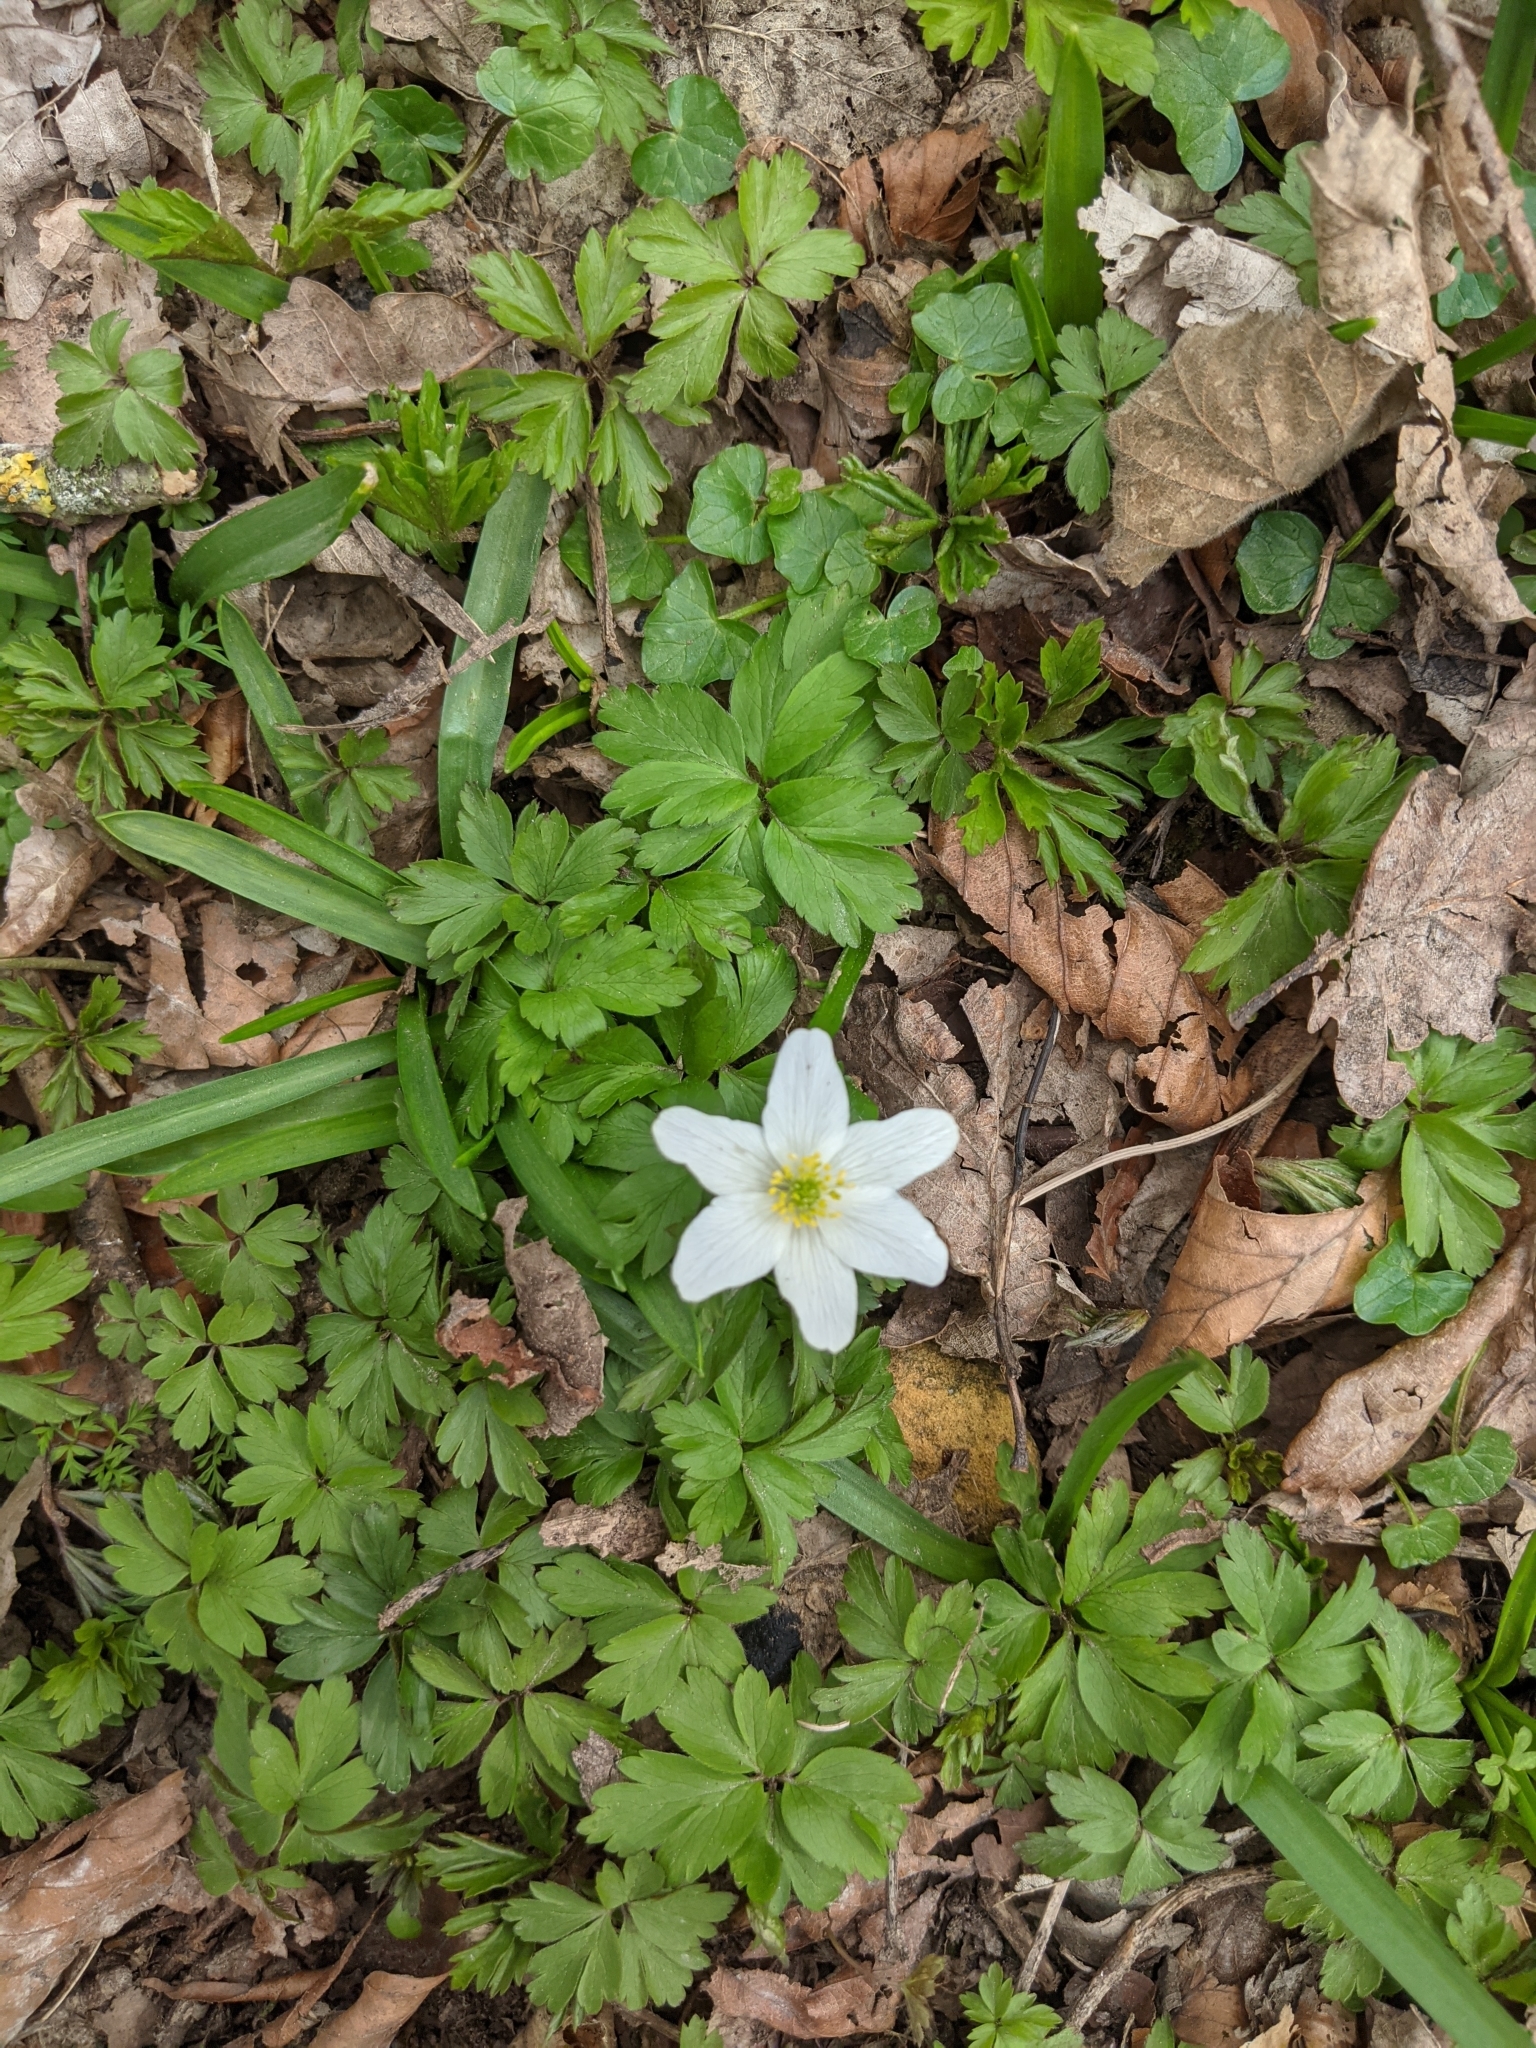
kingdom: Plantae
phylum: Tracheophyta
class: Magnoliopsida
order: Ranunculales
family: Ranunculaceae
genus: Anemone
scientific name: Anemone nemorosa
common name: Wood anemone
